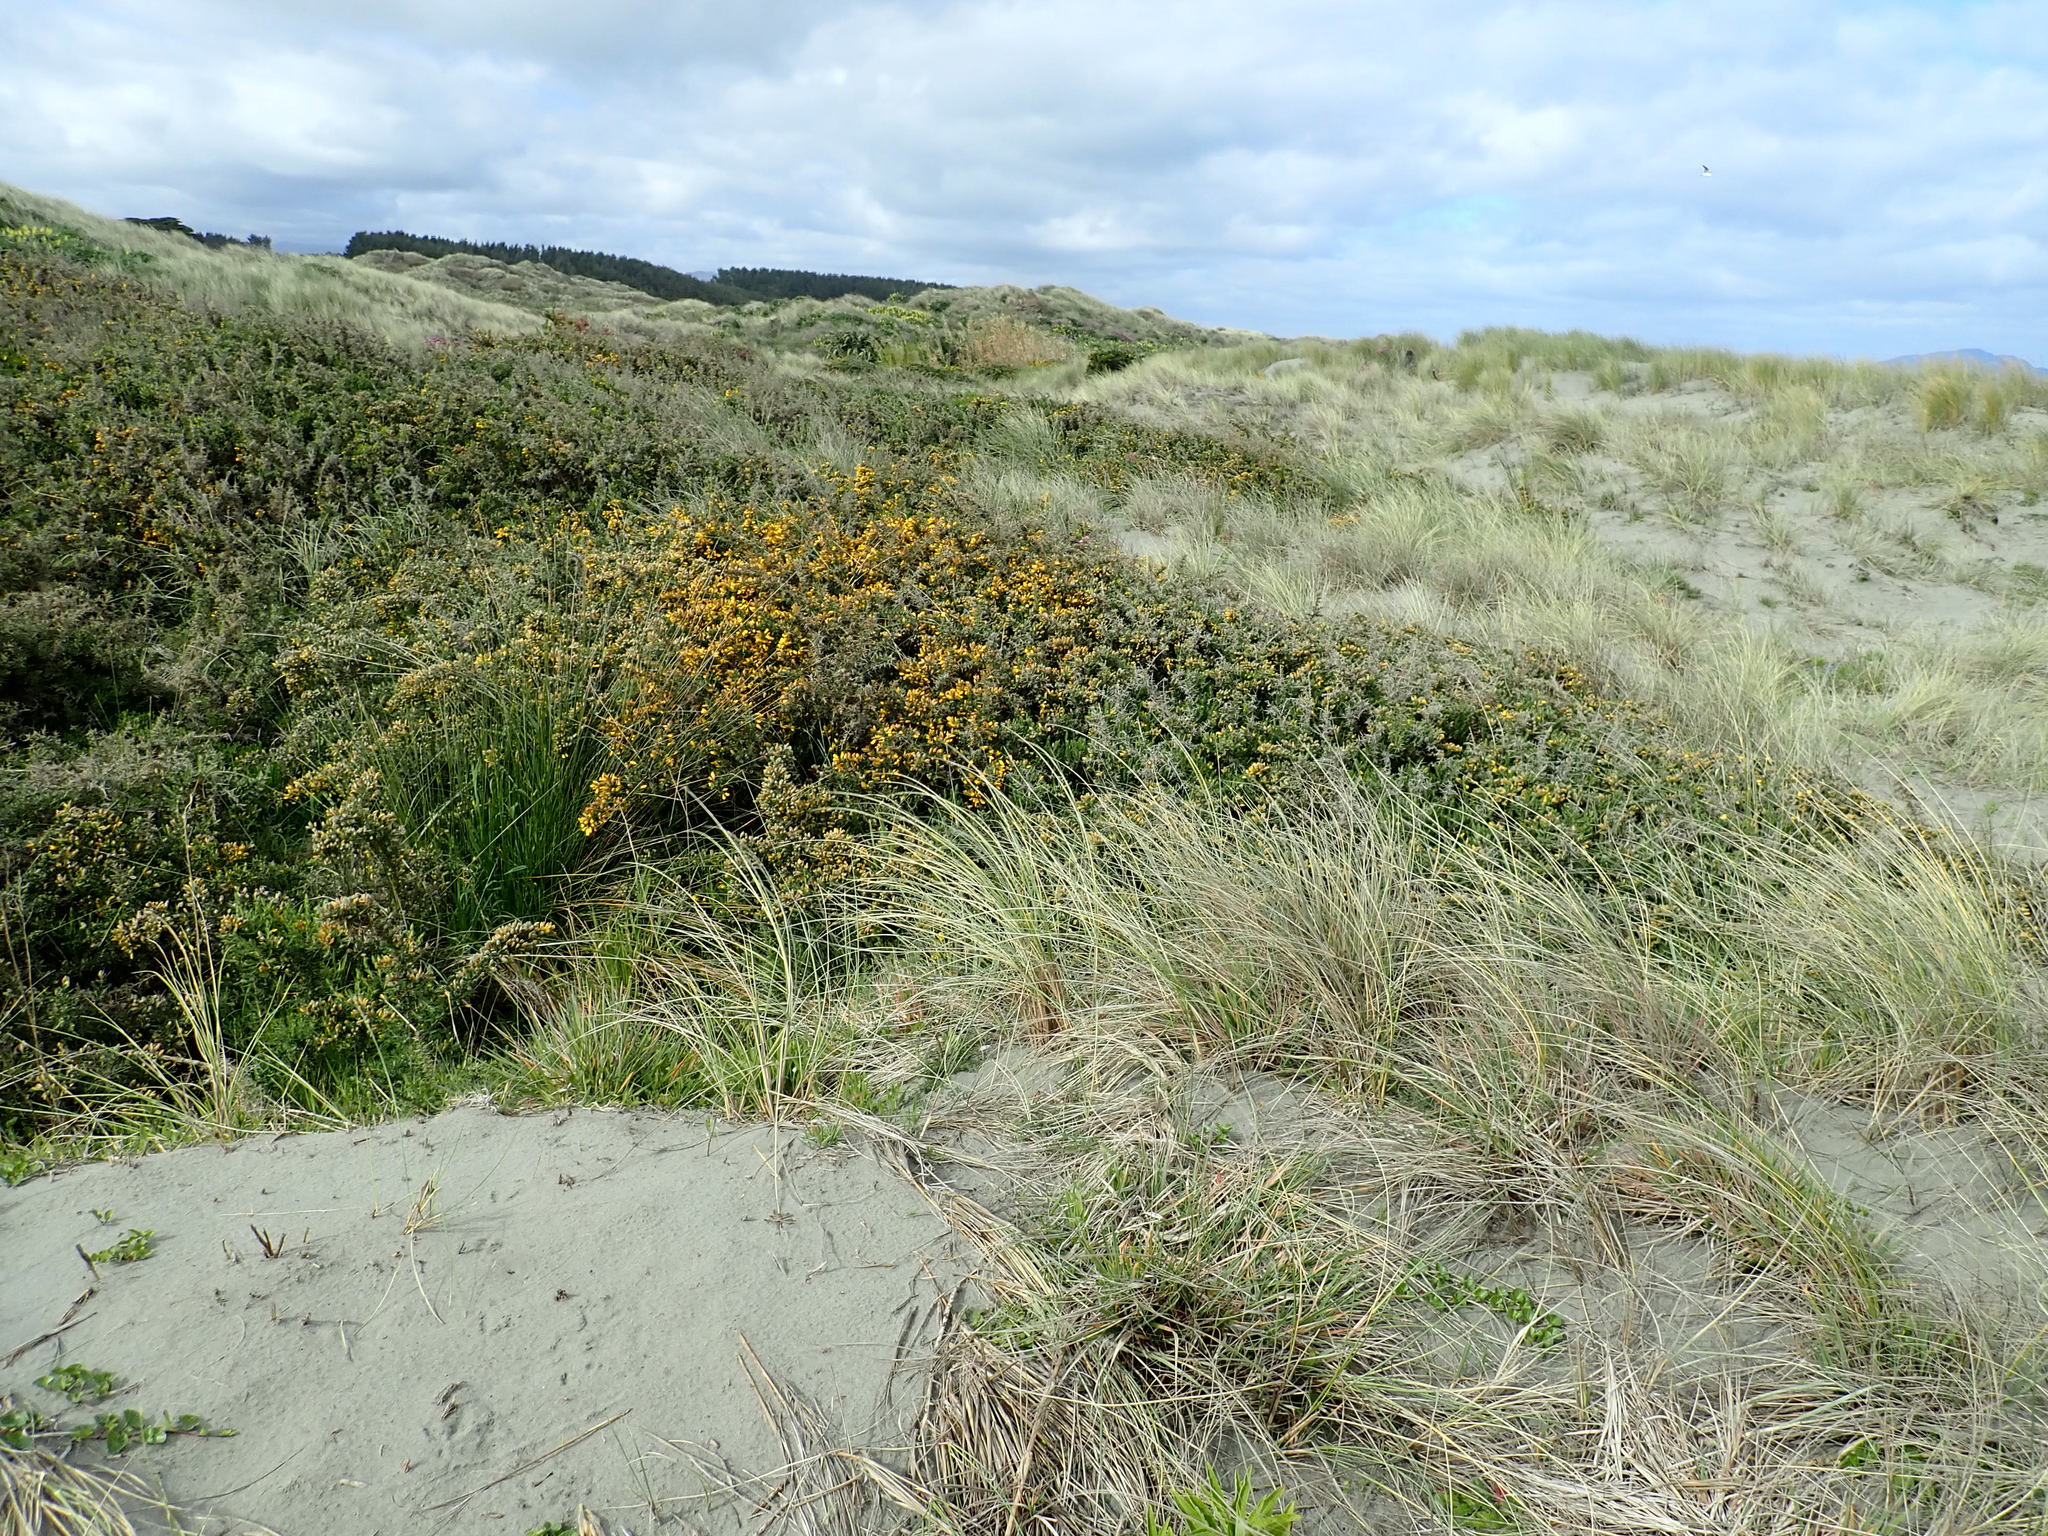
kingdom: Plantae
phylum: Tracheophyta
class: Magnoliopsida
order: Fabales
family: Fabaceae
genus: Ulex
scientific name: Ulex europaeus
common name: Common gorse
